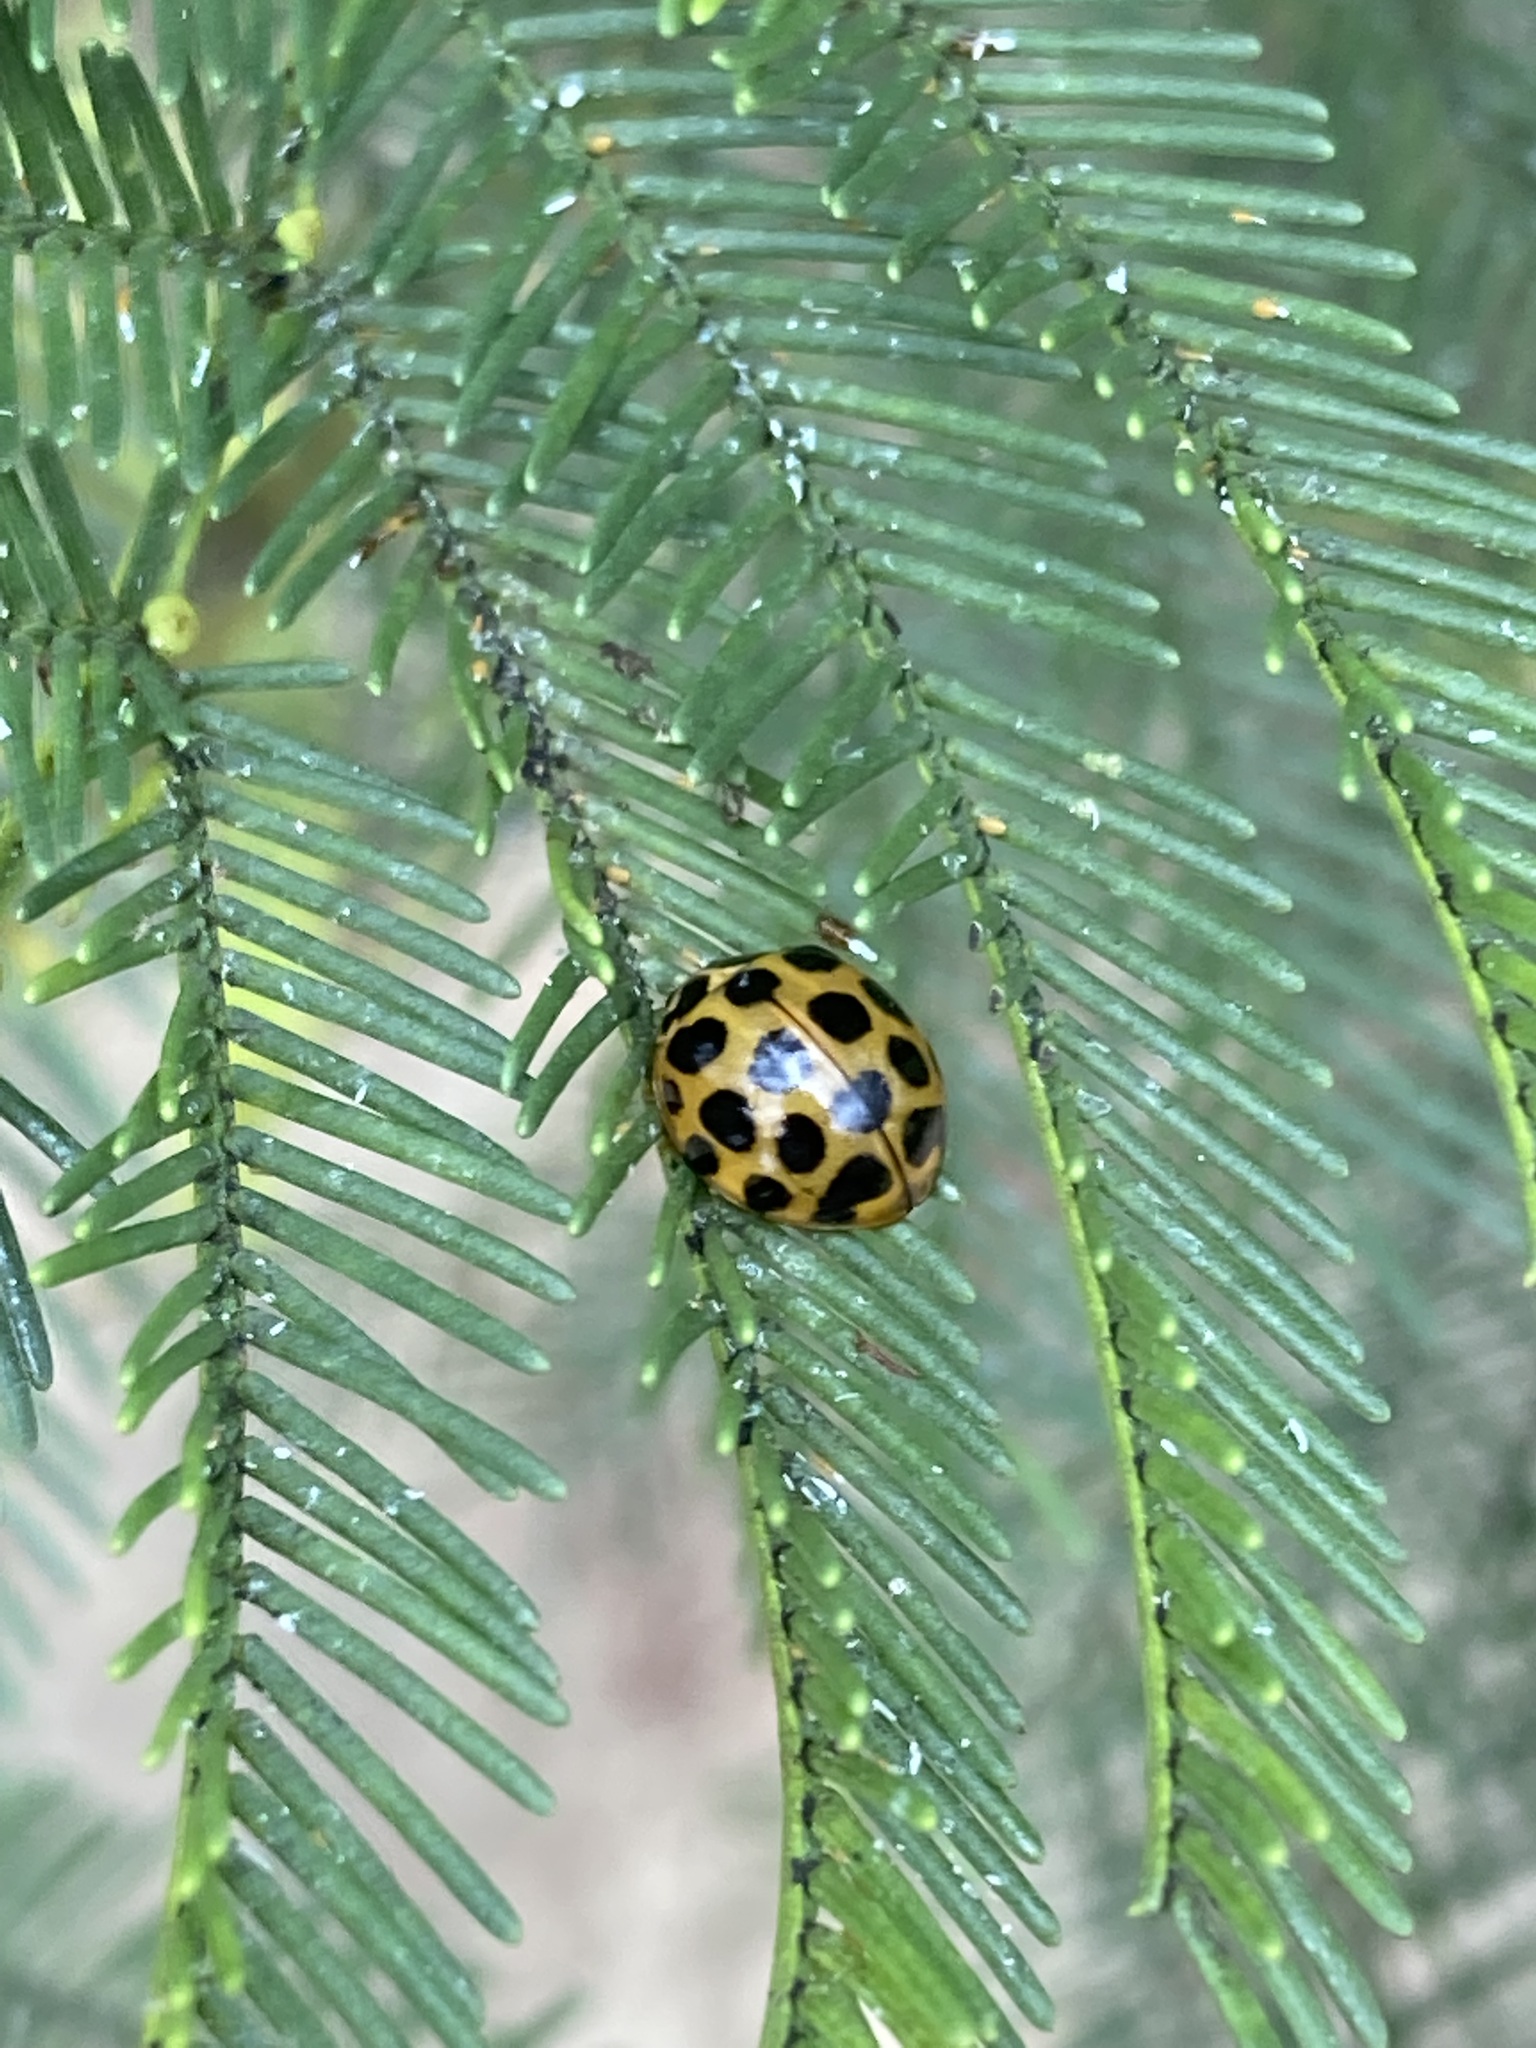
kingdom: Animalia
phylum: Arthropoda
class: Insecta
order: Coleoptera
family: Coccinellidae
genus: Harmonia
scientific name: Harmonia conformis
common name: Common spotted ladybird beetle
